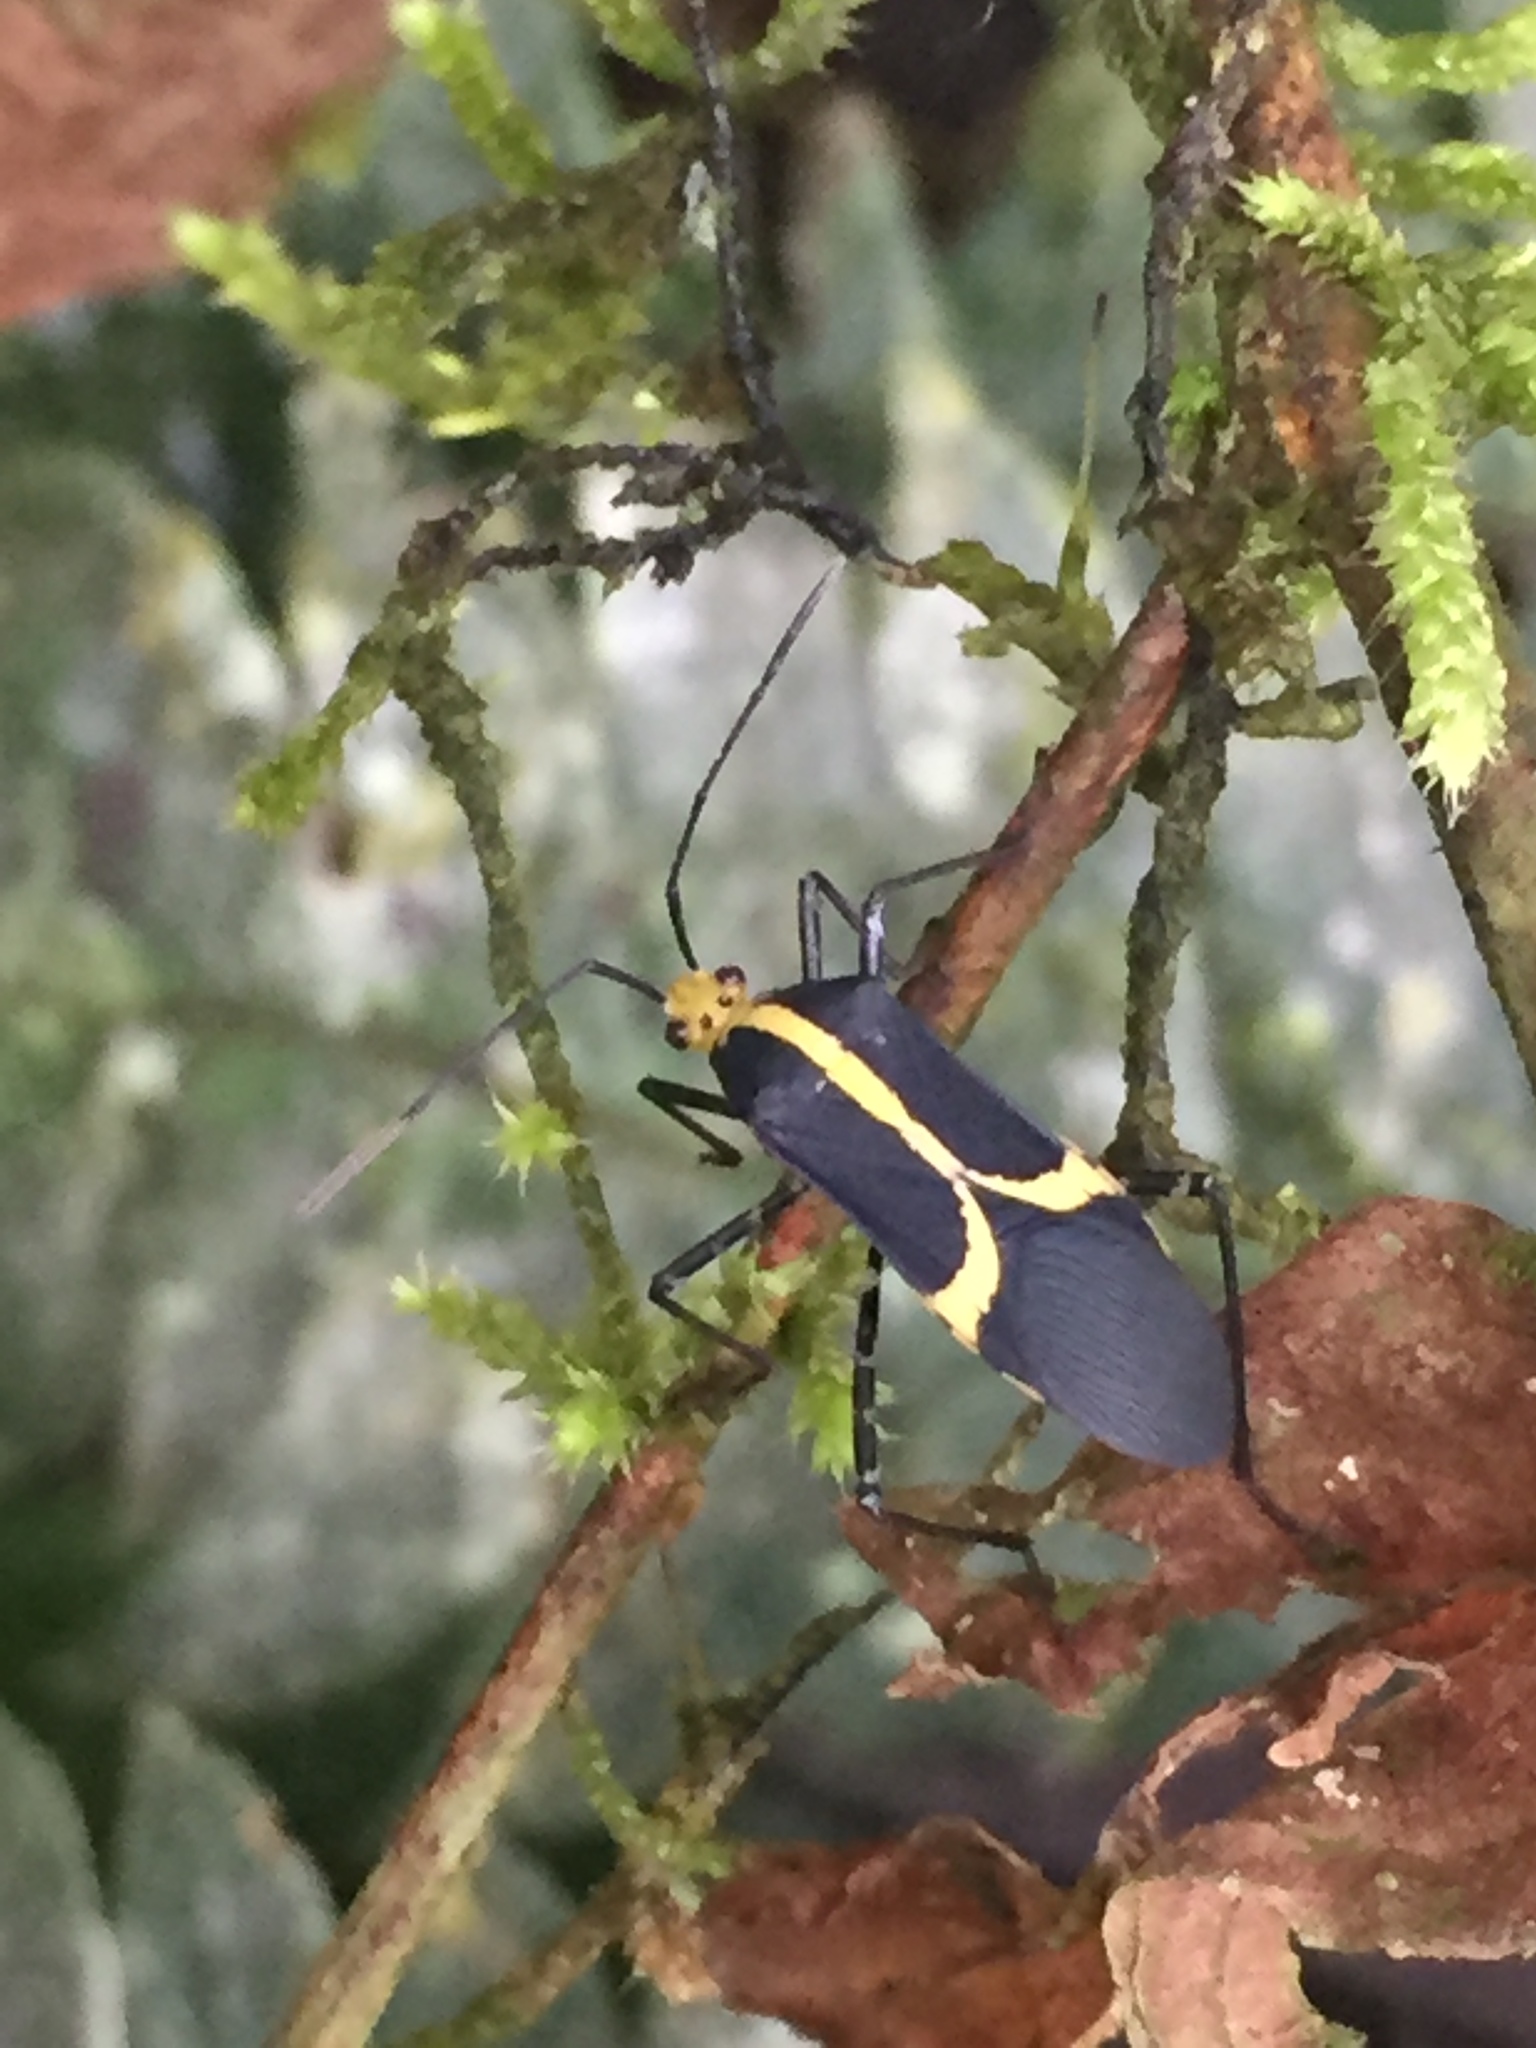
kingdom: Animalia
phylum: Arthropoda
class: Insecta
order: Hemiptera
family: Coreidae
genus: Hypselonotus
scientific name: Hypselonotus linea
